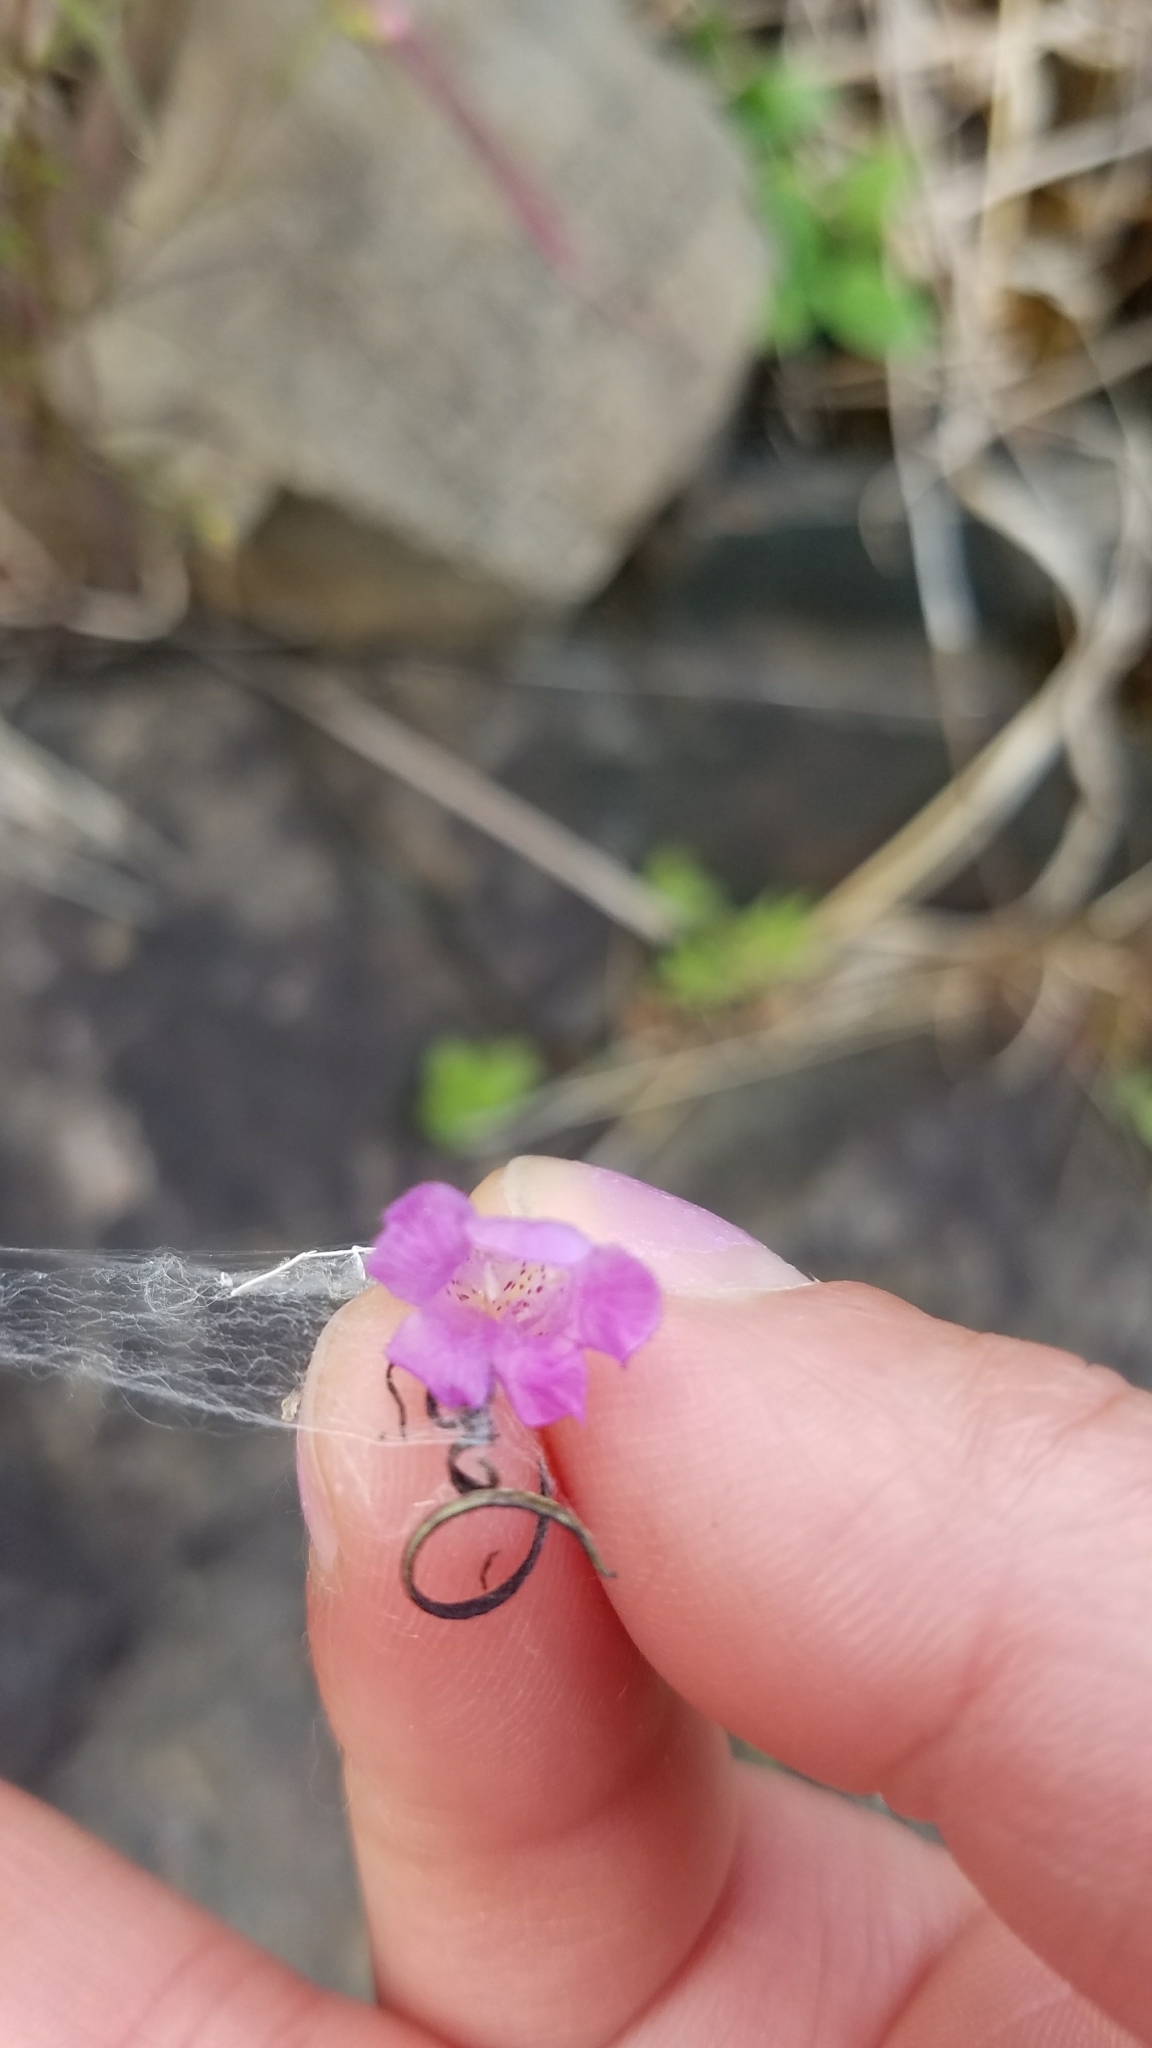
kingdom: Plantae
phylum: Tracheophyta
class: Magnoliopsida
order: Lamiales
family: Orobanchaceae
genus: Agalinis
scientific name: Agalinis purpurea
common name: Purple false foxglove
